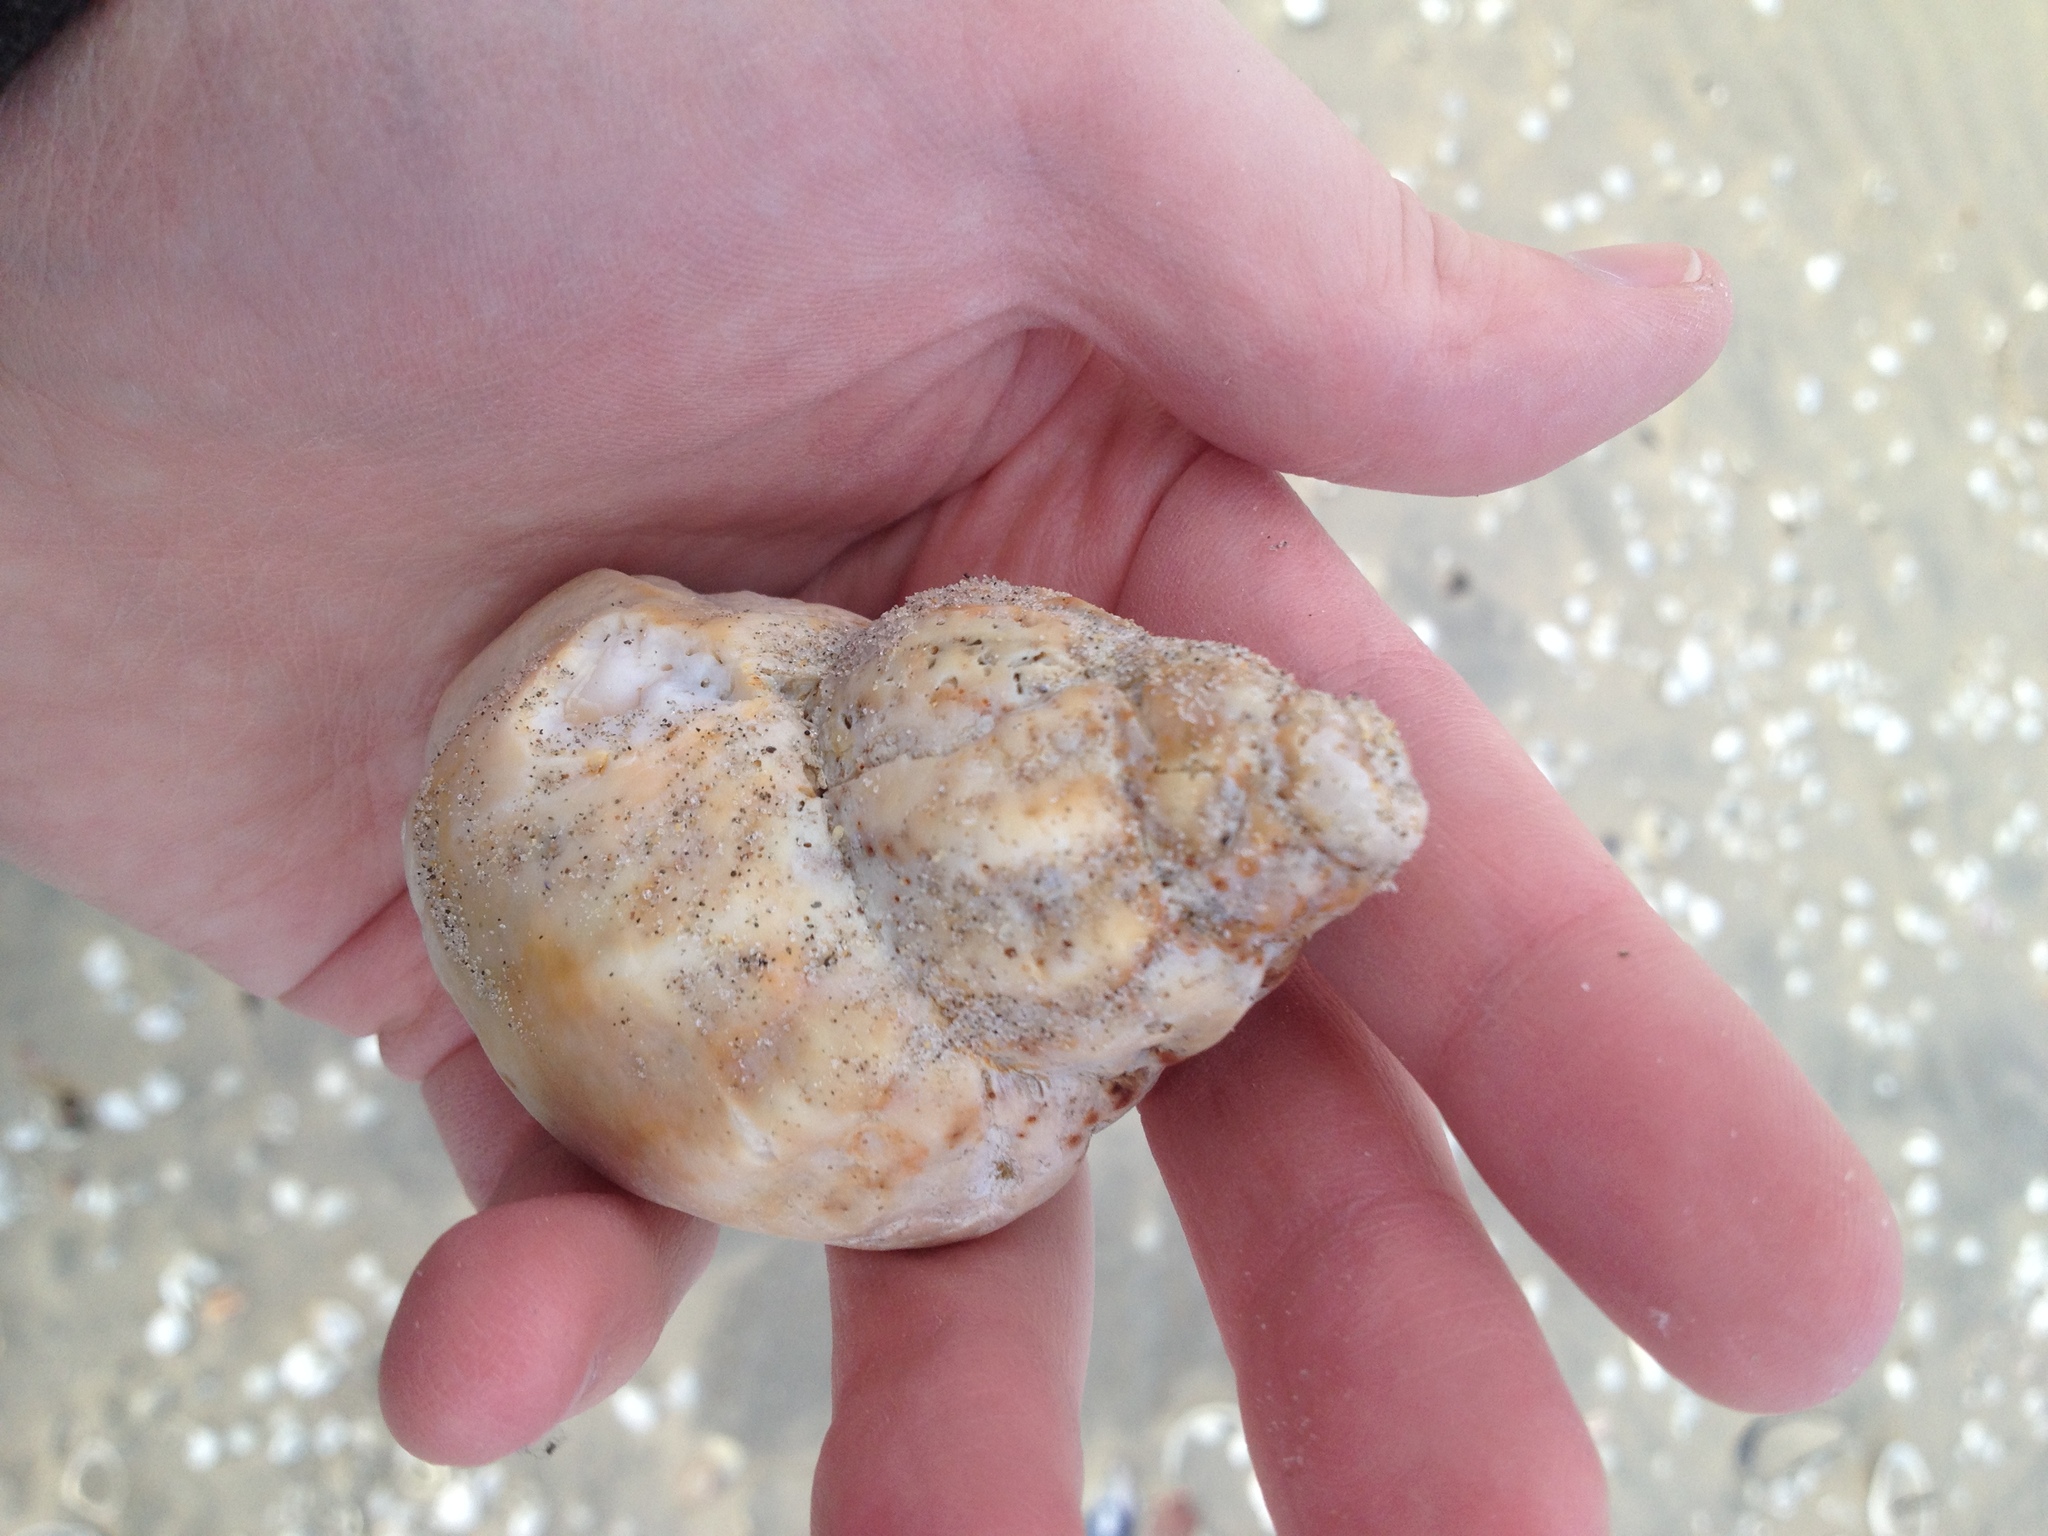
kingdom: Animalia
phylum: Mollusca
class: Gastropoda
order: Neogastropoda
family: Buccinidae
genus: Buccinum
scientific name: Buccinum undatum
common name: Common whelk
